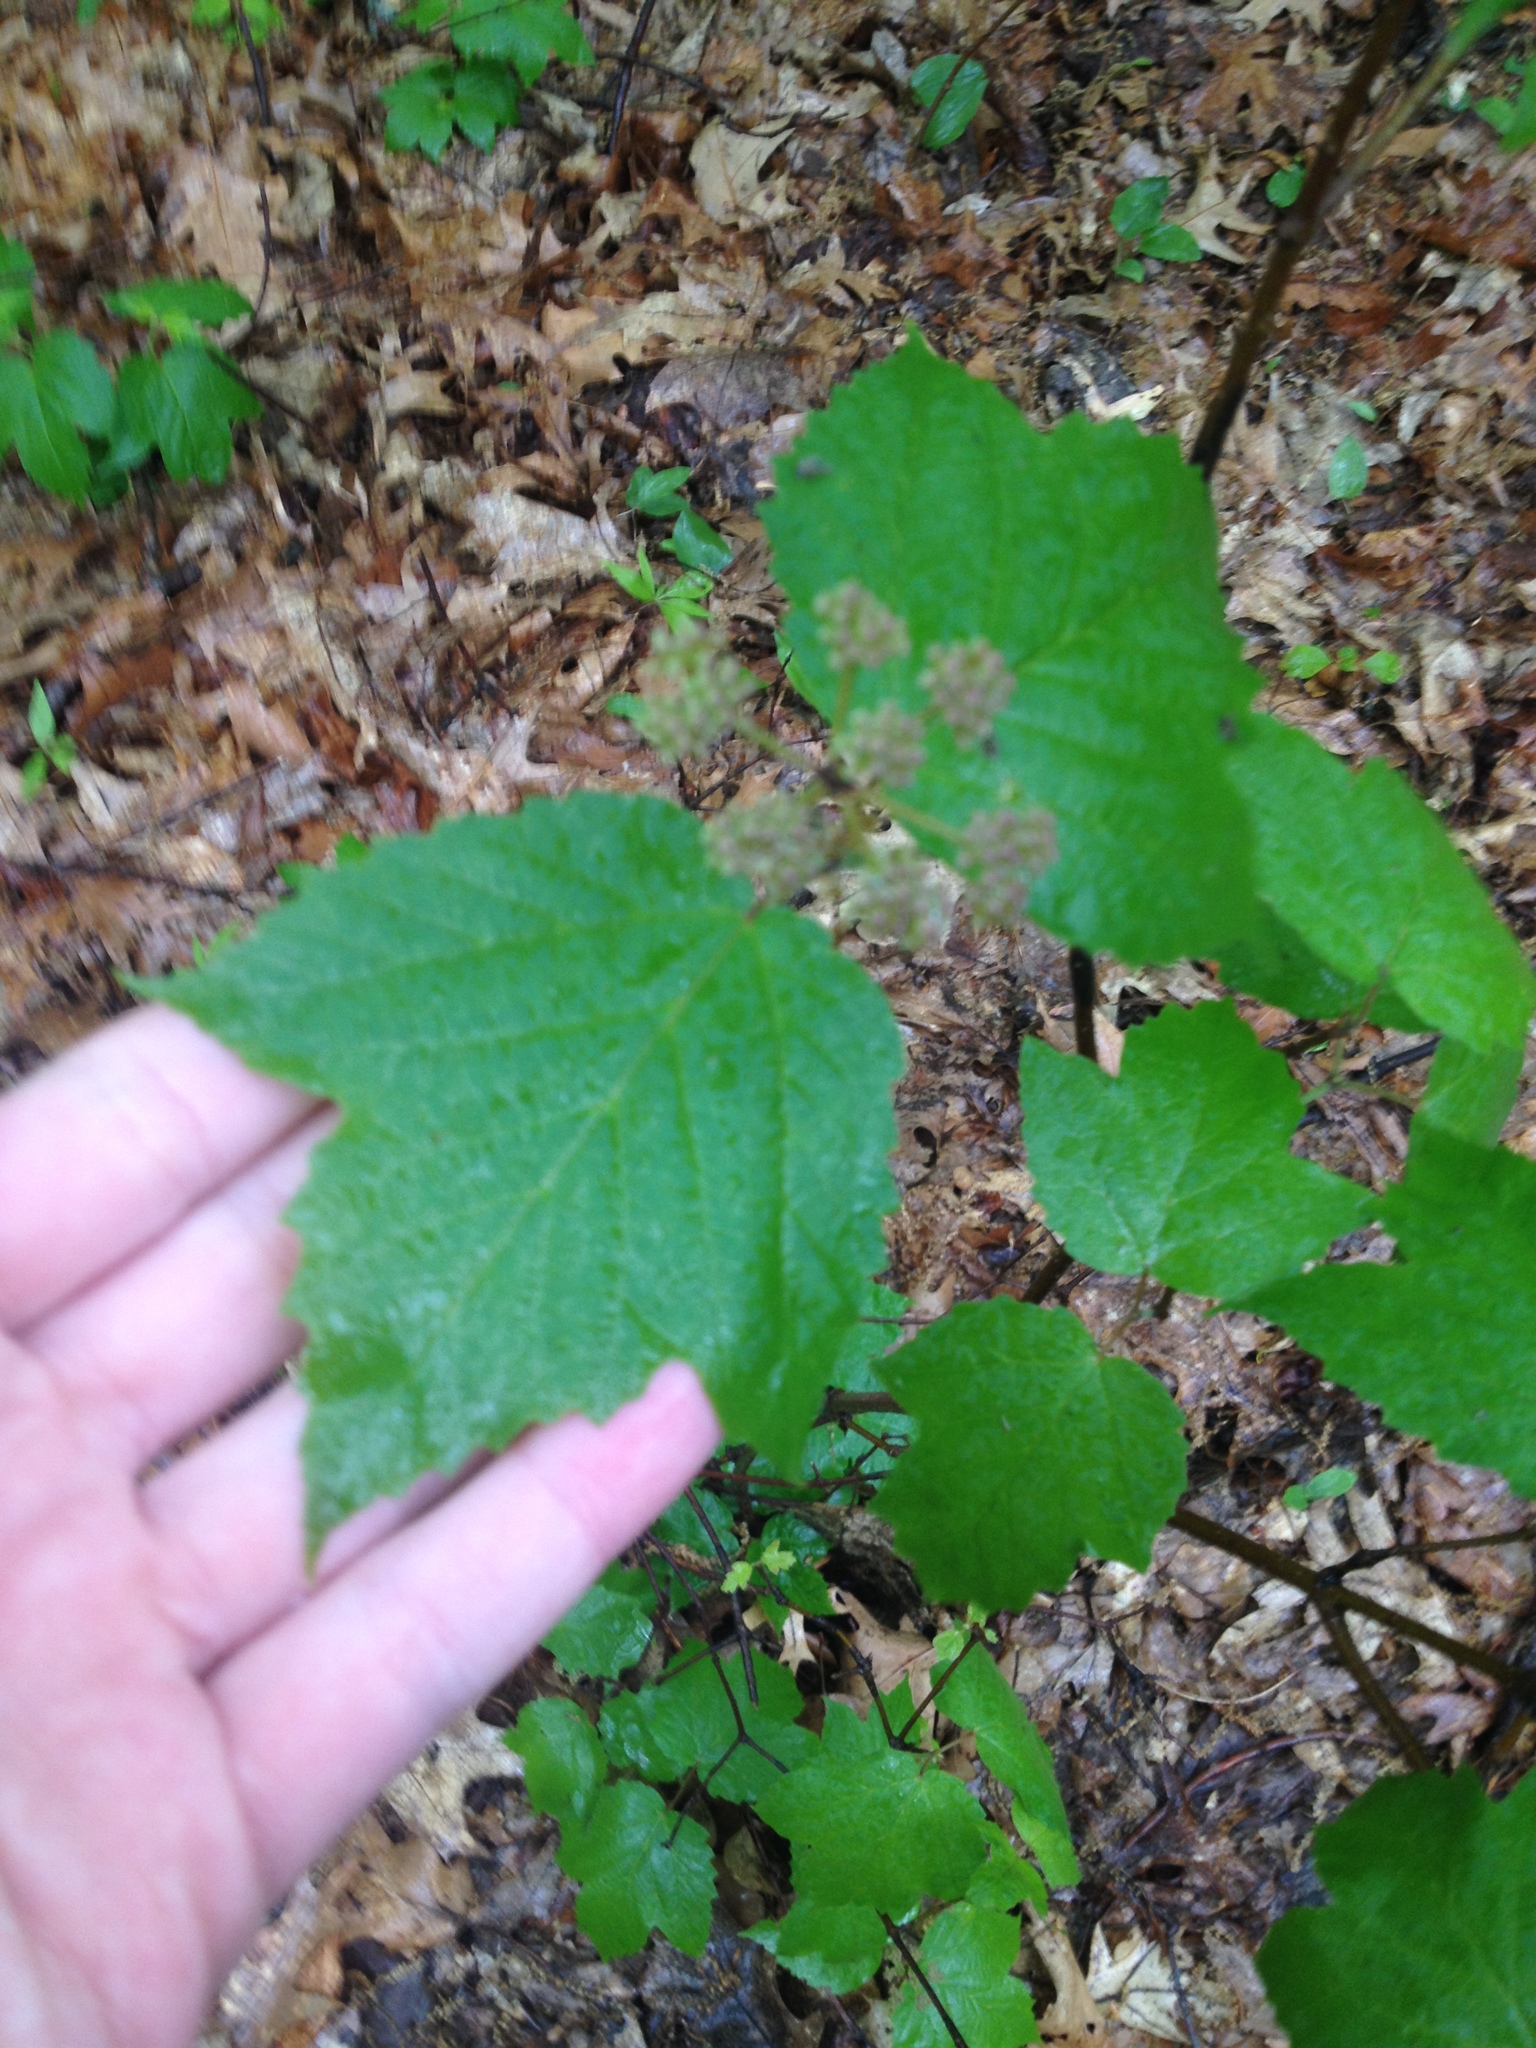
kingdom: Plantae
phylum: Tracheophyta
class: Magnoliopsida
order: Dipsacales
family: Viburnaceae
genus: Viburnum
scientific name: Viburnum acerifolium
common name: Dockmackie
